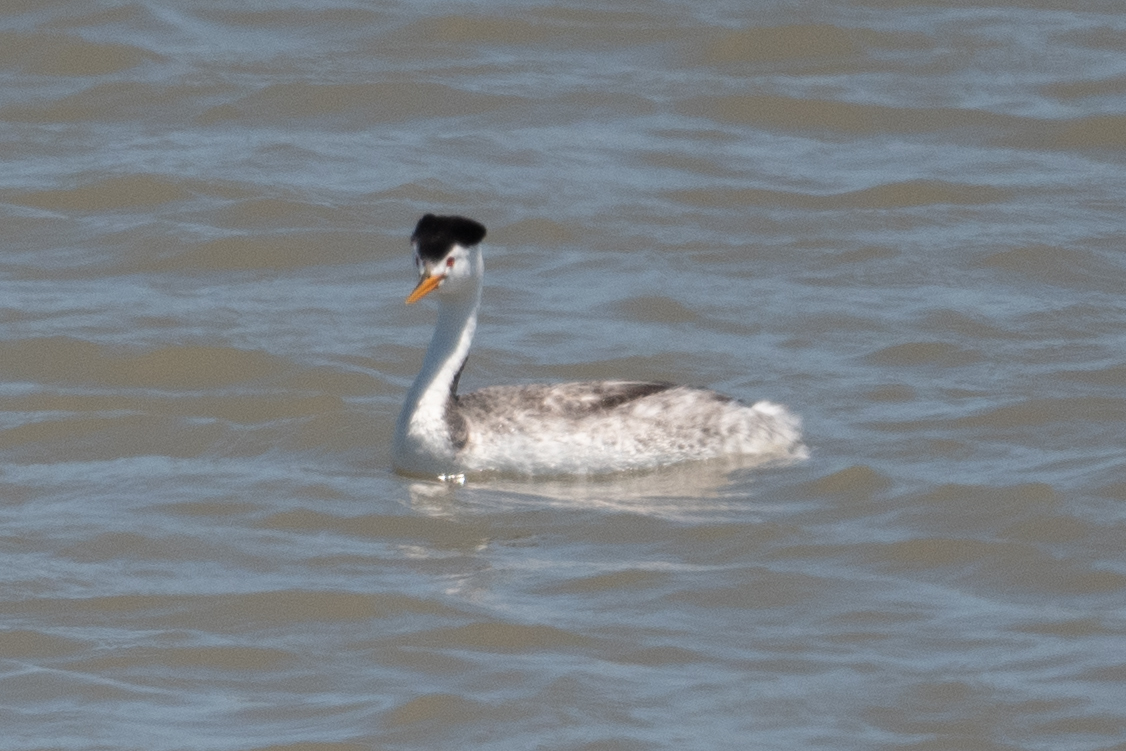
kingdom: Animalia
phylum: Chordata
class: Aves
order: Podicipediformes
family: Podicipedidae
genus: Aechmophorus
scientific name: Aechmophorus clarkii
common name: Clark's grebe
